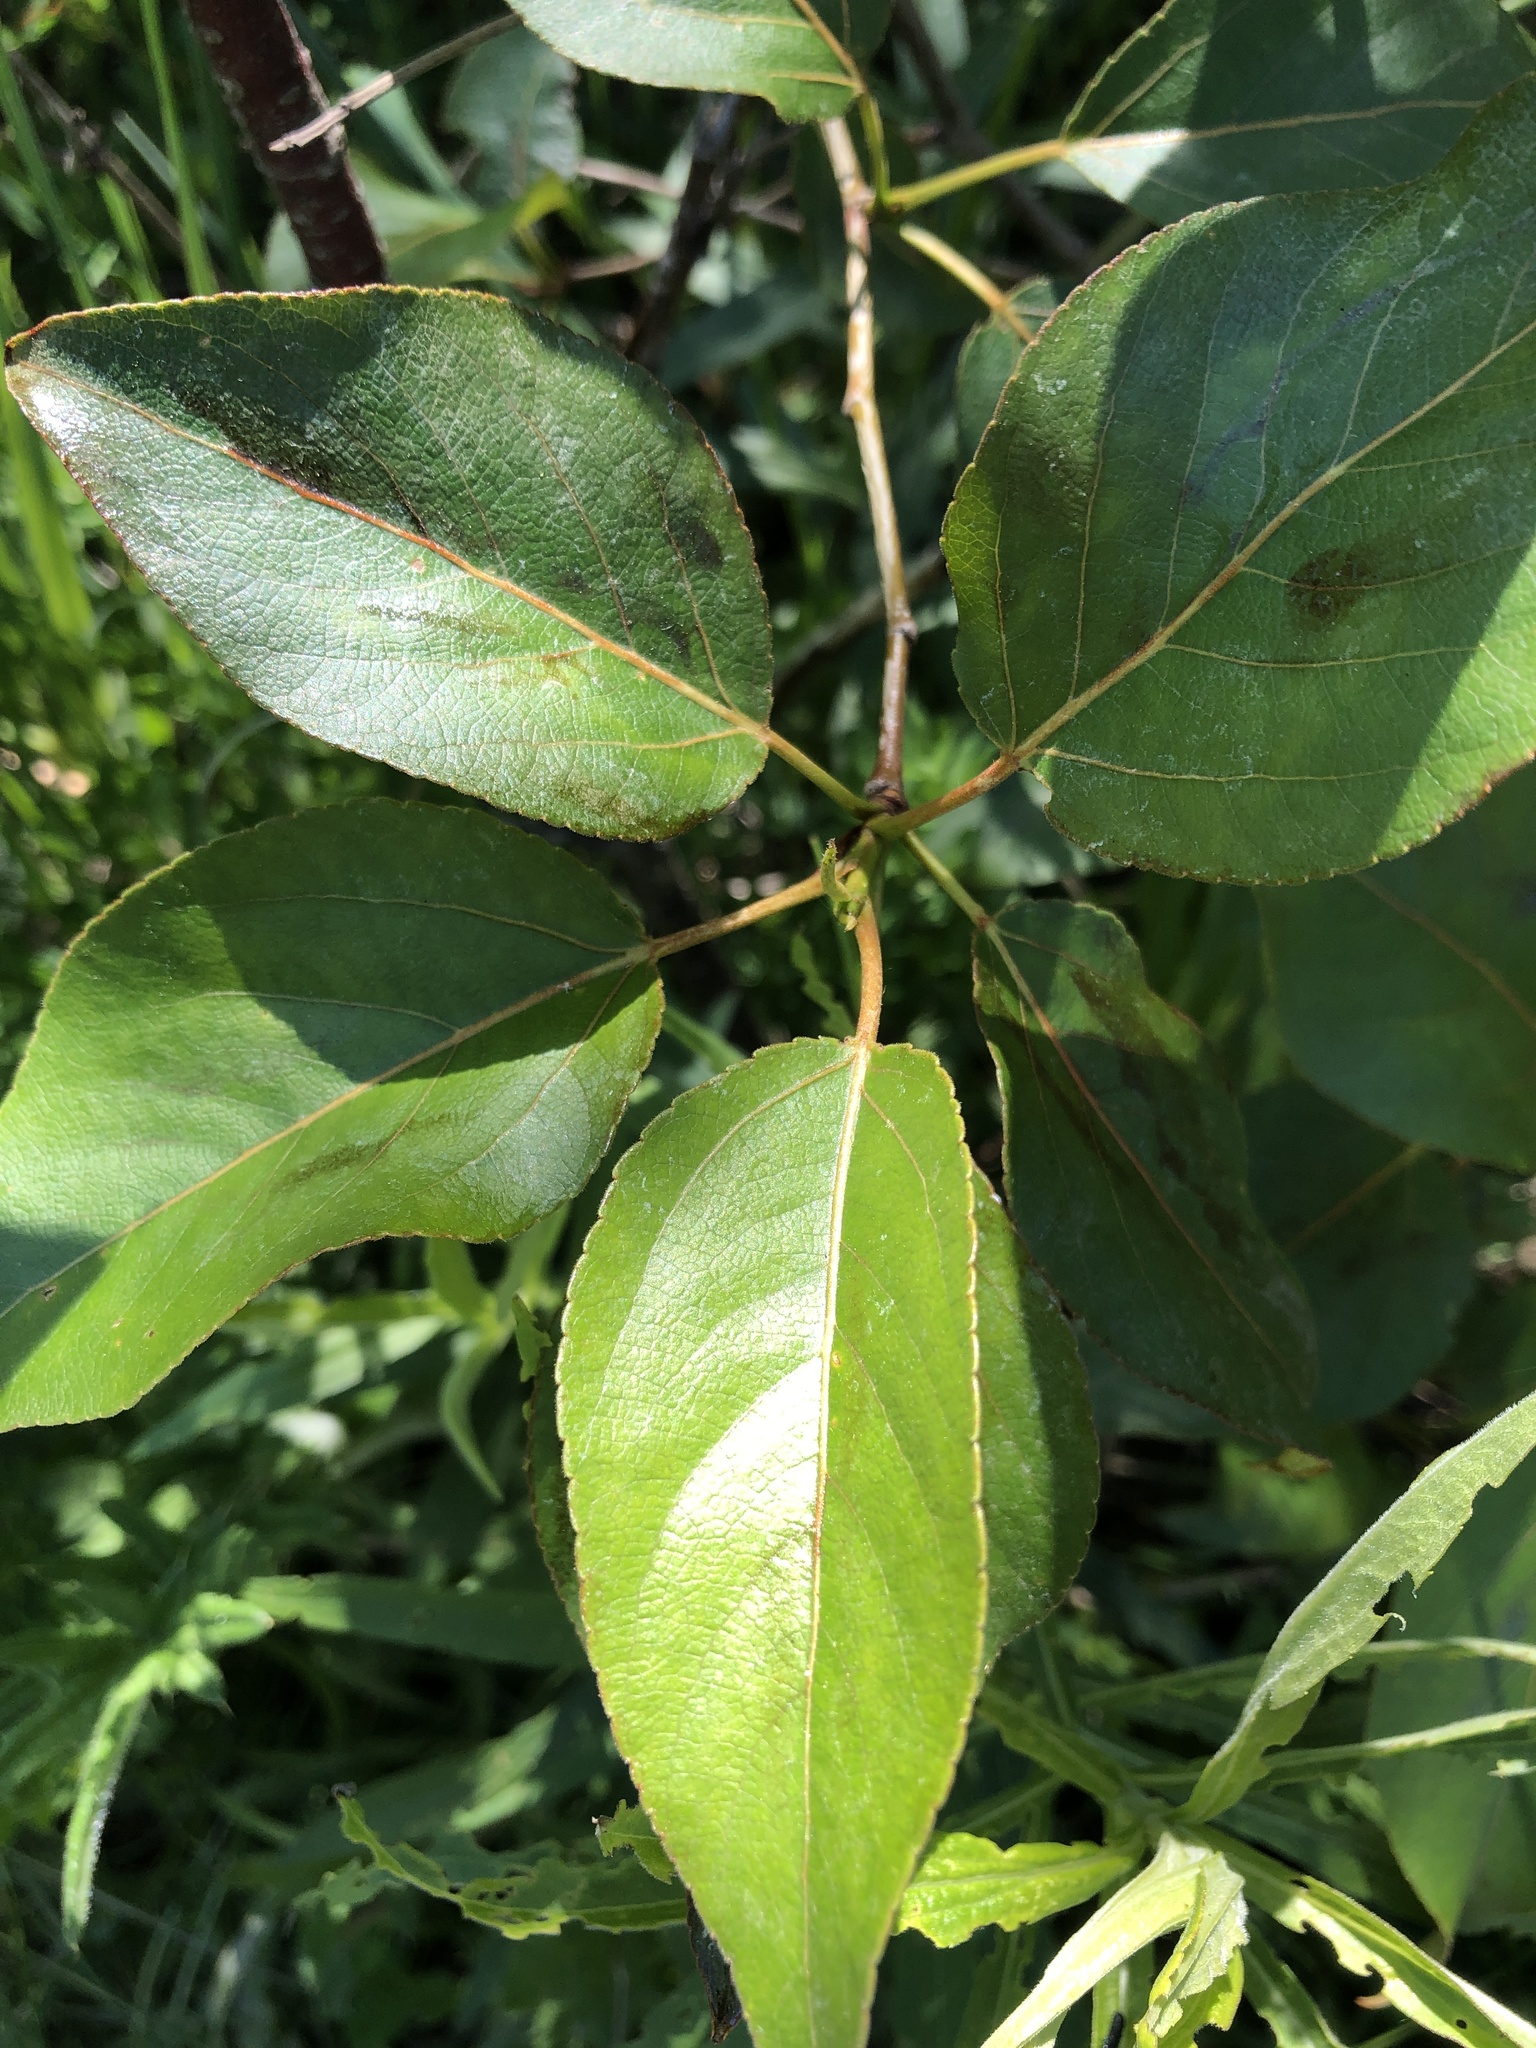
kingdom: Plantae
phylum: Tracheophyta
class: Magnoliopsida
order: Malpighiales
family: Salicaceae
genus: Populus
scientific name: Populus balsamifera
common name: Balsam poplar
